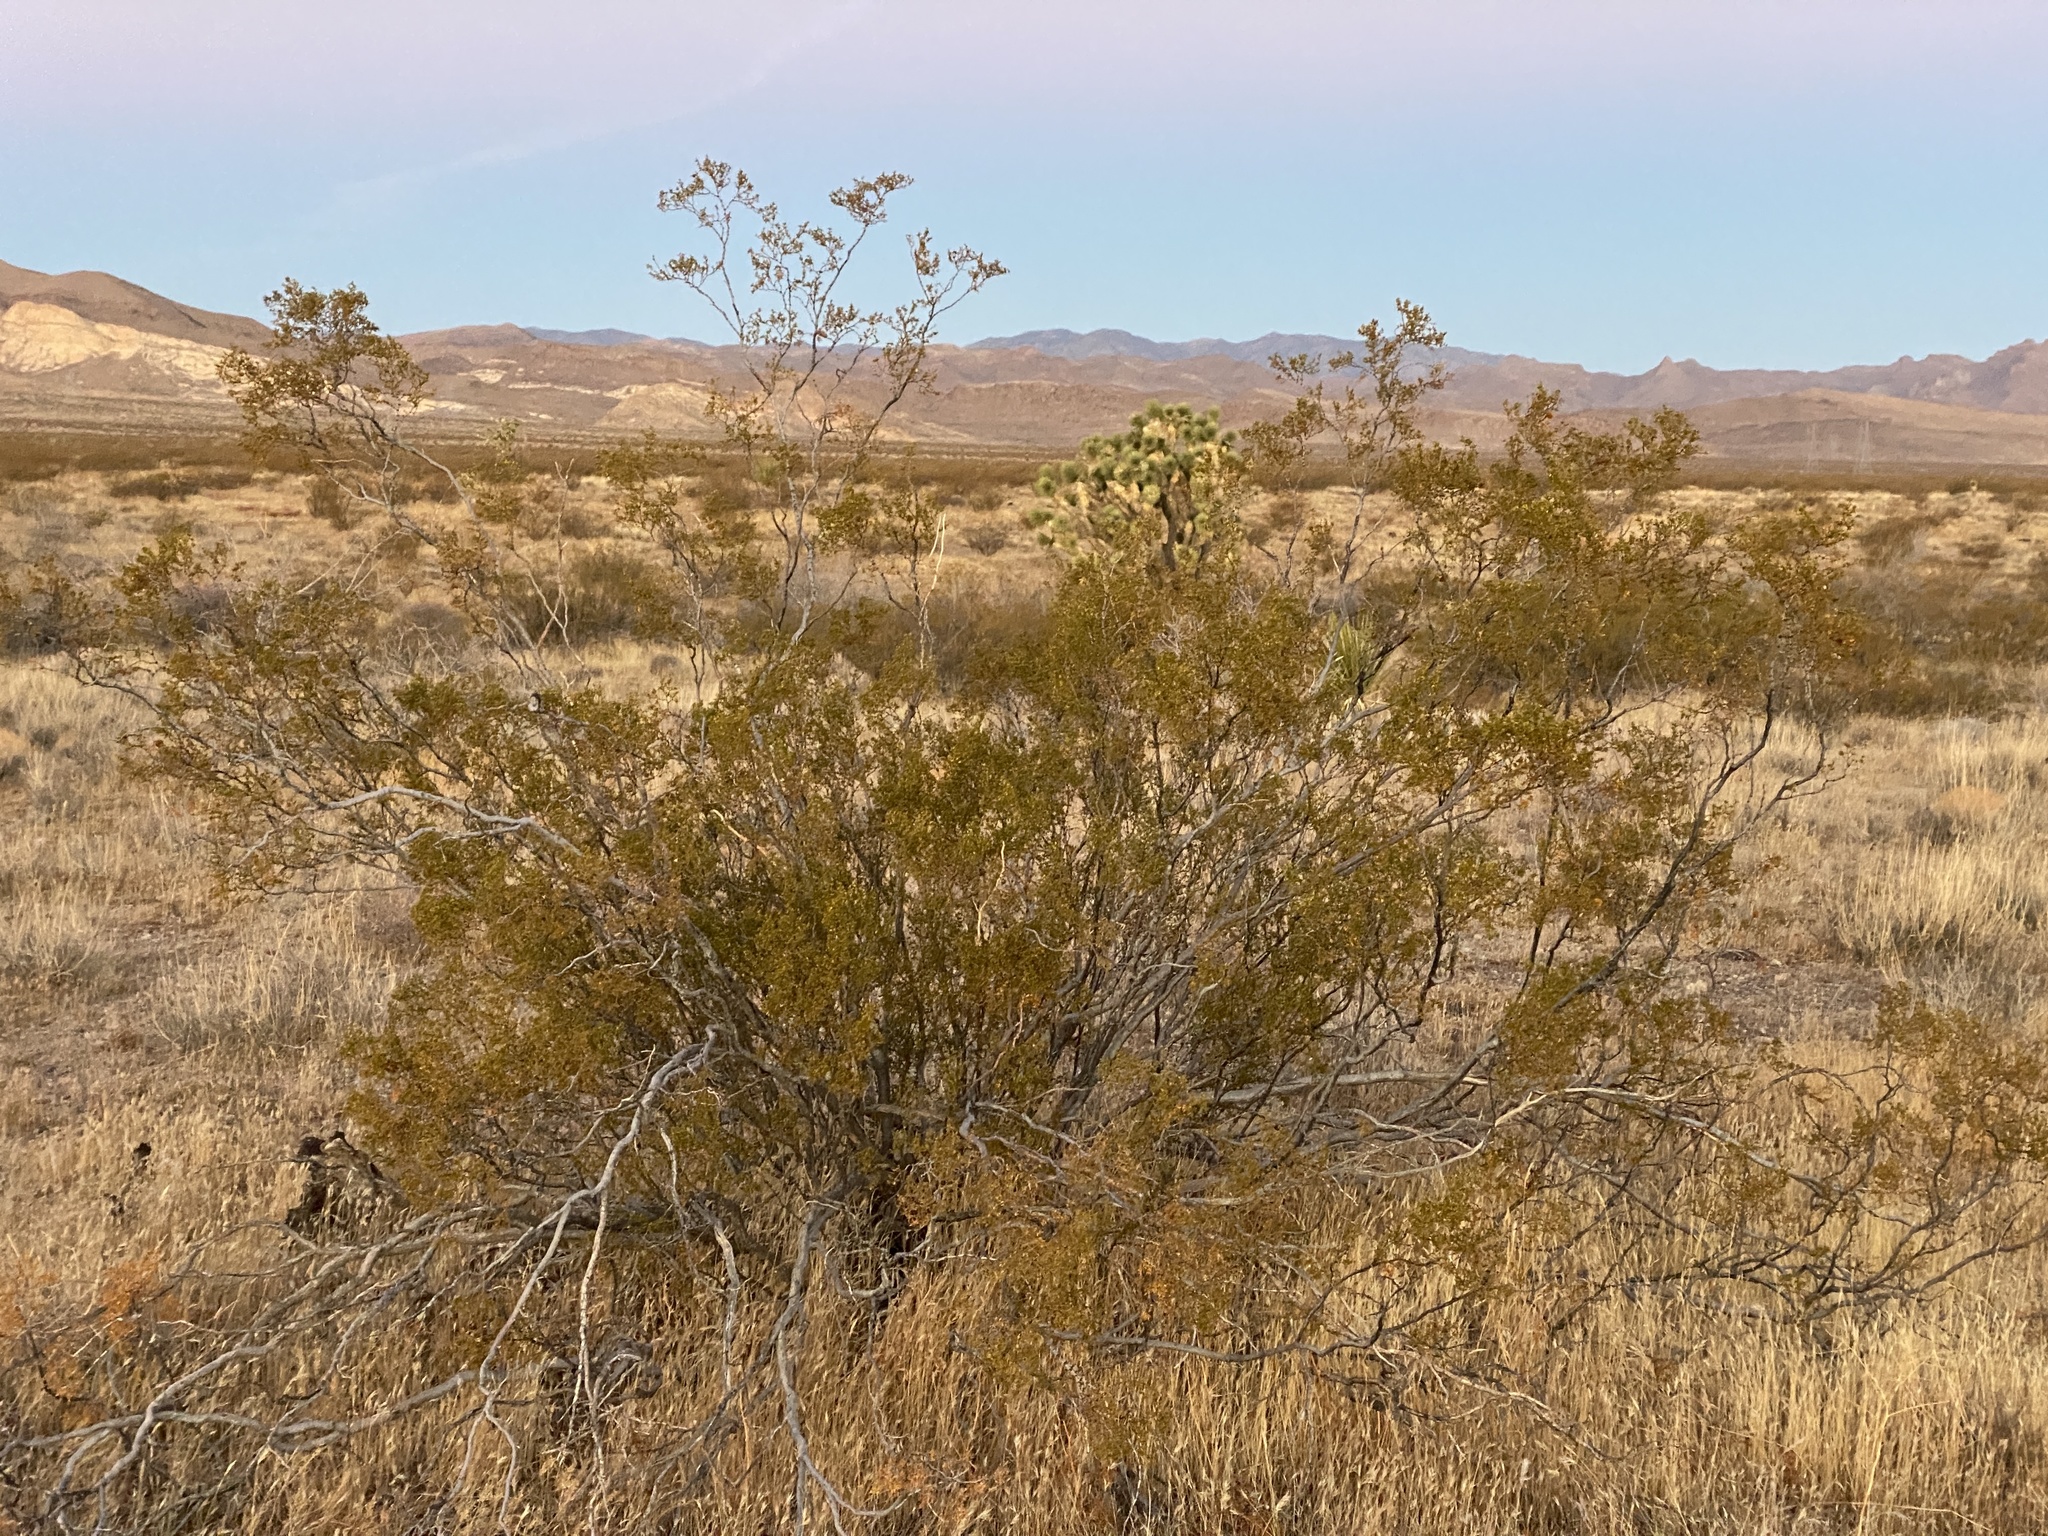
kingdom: Plantae
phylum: Tracheophyta
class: Magnoliopsida
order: Zygophyllales
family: Zygophyllaceae
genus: Larrea
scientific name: Larrea tridentata
